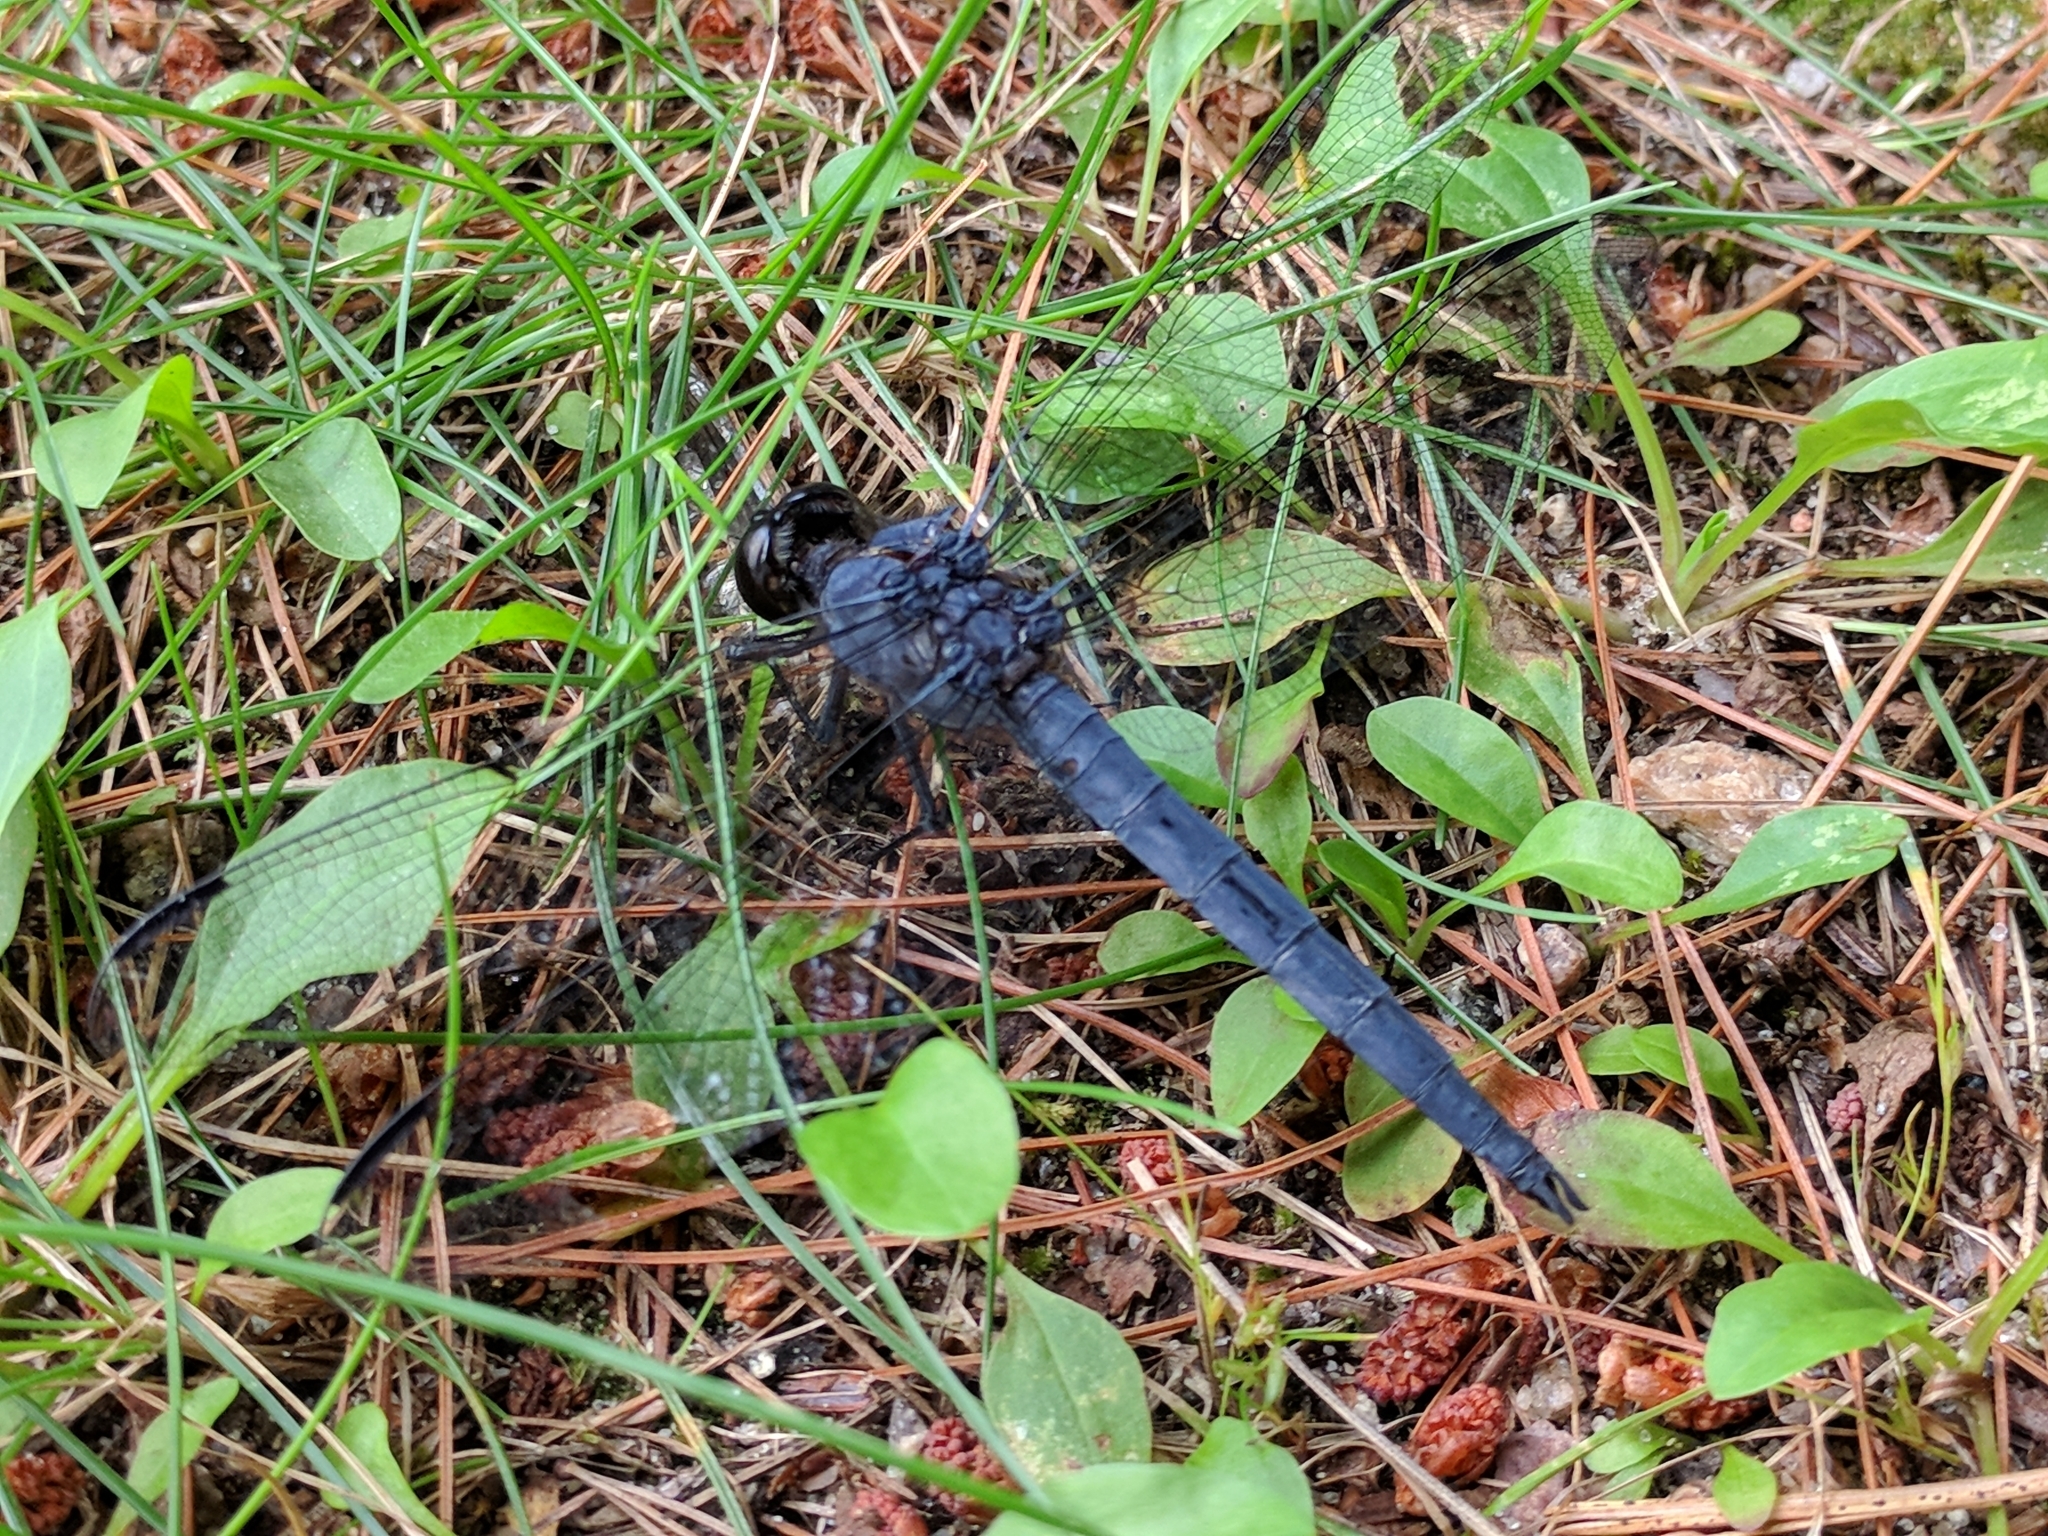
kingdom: Animalia
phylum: Arthropoda
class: Insecta
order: Odonata
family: Libellulidae
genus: Libellula
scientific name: Libellula incesta
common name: Slaty skimmer
